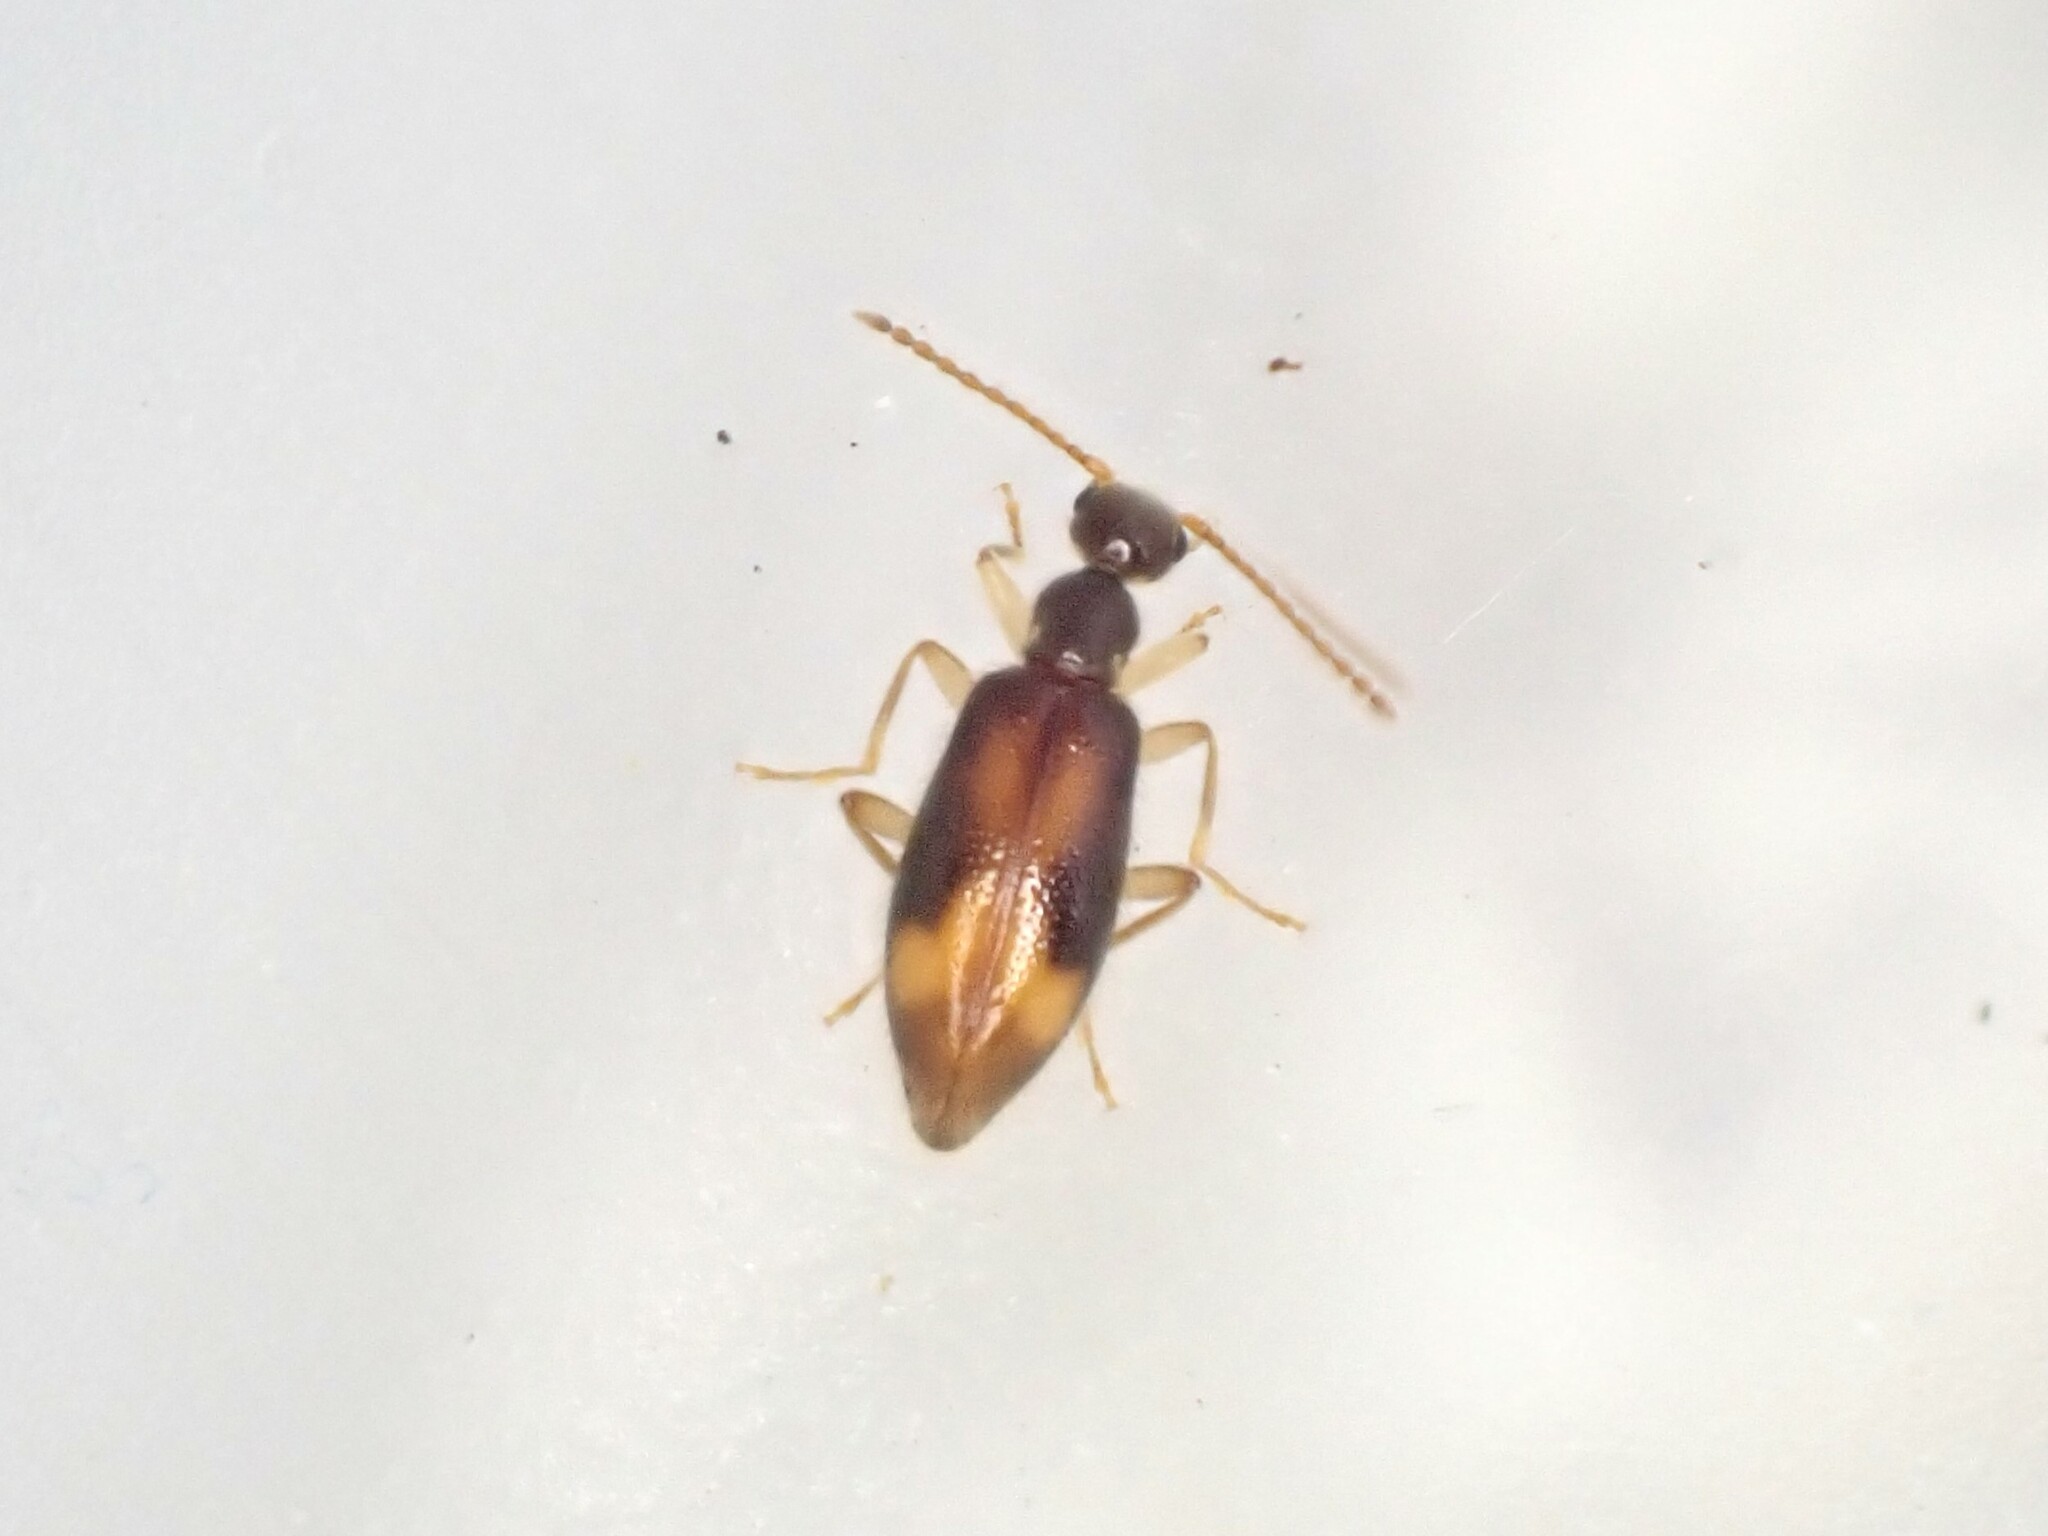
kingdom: Animalia
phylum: Arthropoda
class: Insecta
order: Coleoptera
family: Anthicidae
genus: Sapintus
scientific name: Sapintus pellucidipes
